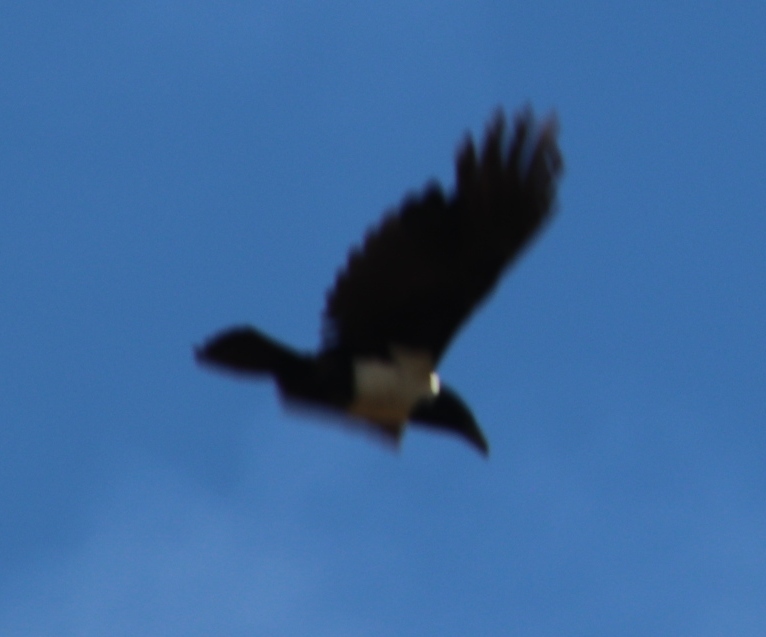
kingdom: Animalia
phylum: Chordata
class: Aves
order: Passeriformes
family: Corvidae
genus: Corvus
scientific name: Corvus albus
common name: Pied crow
